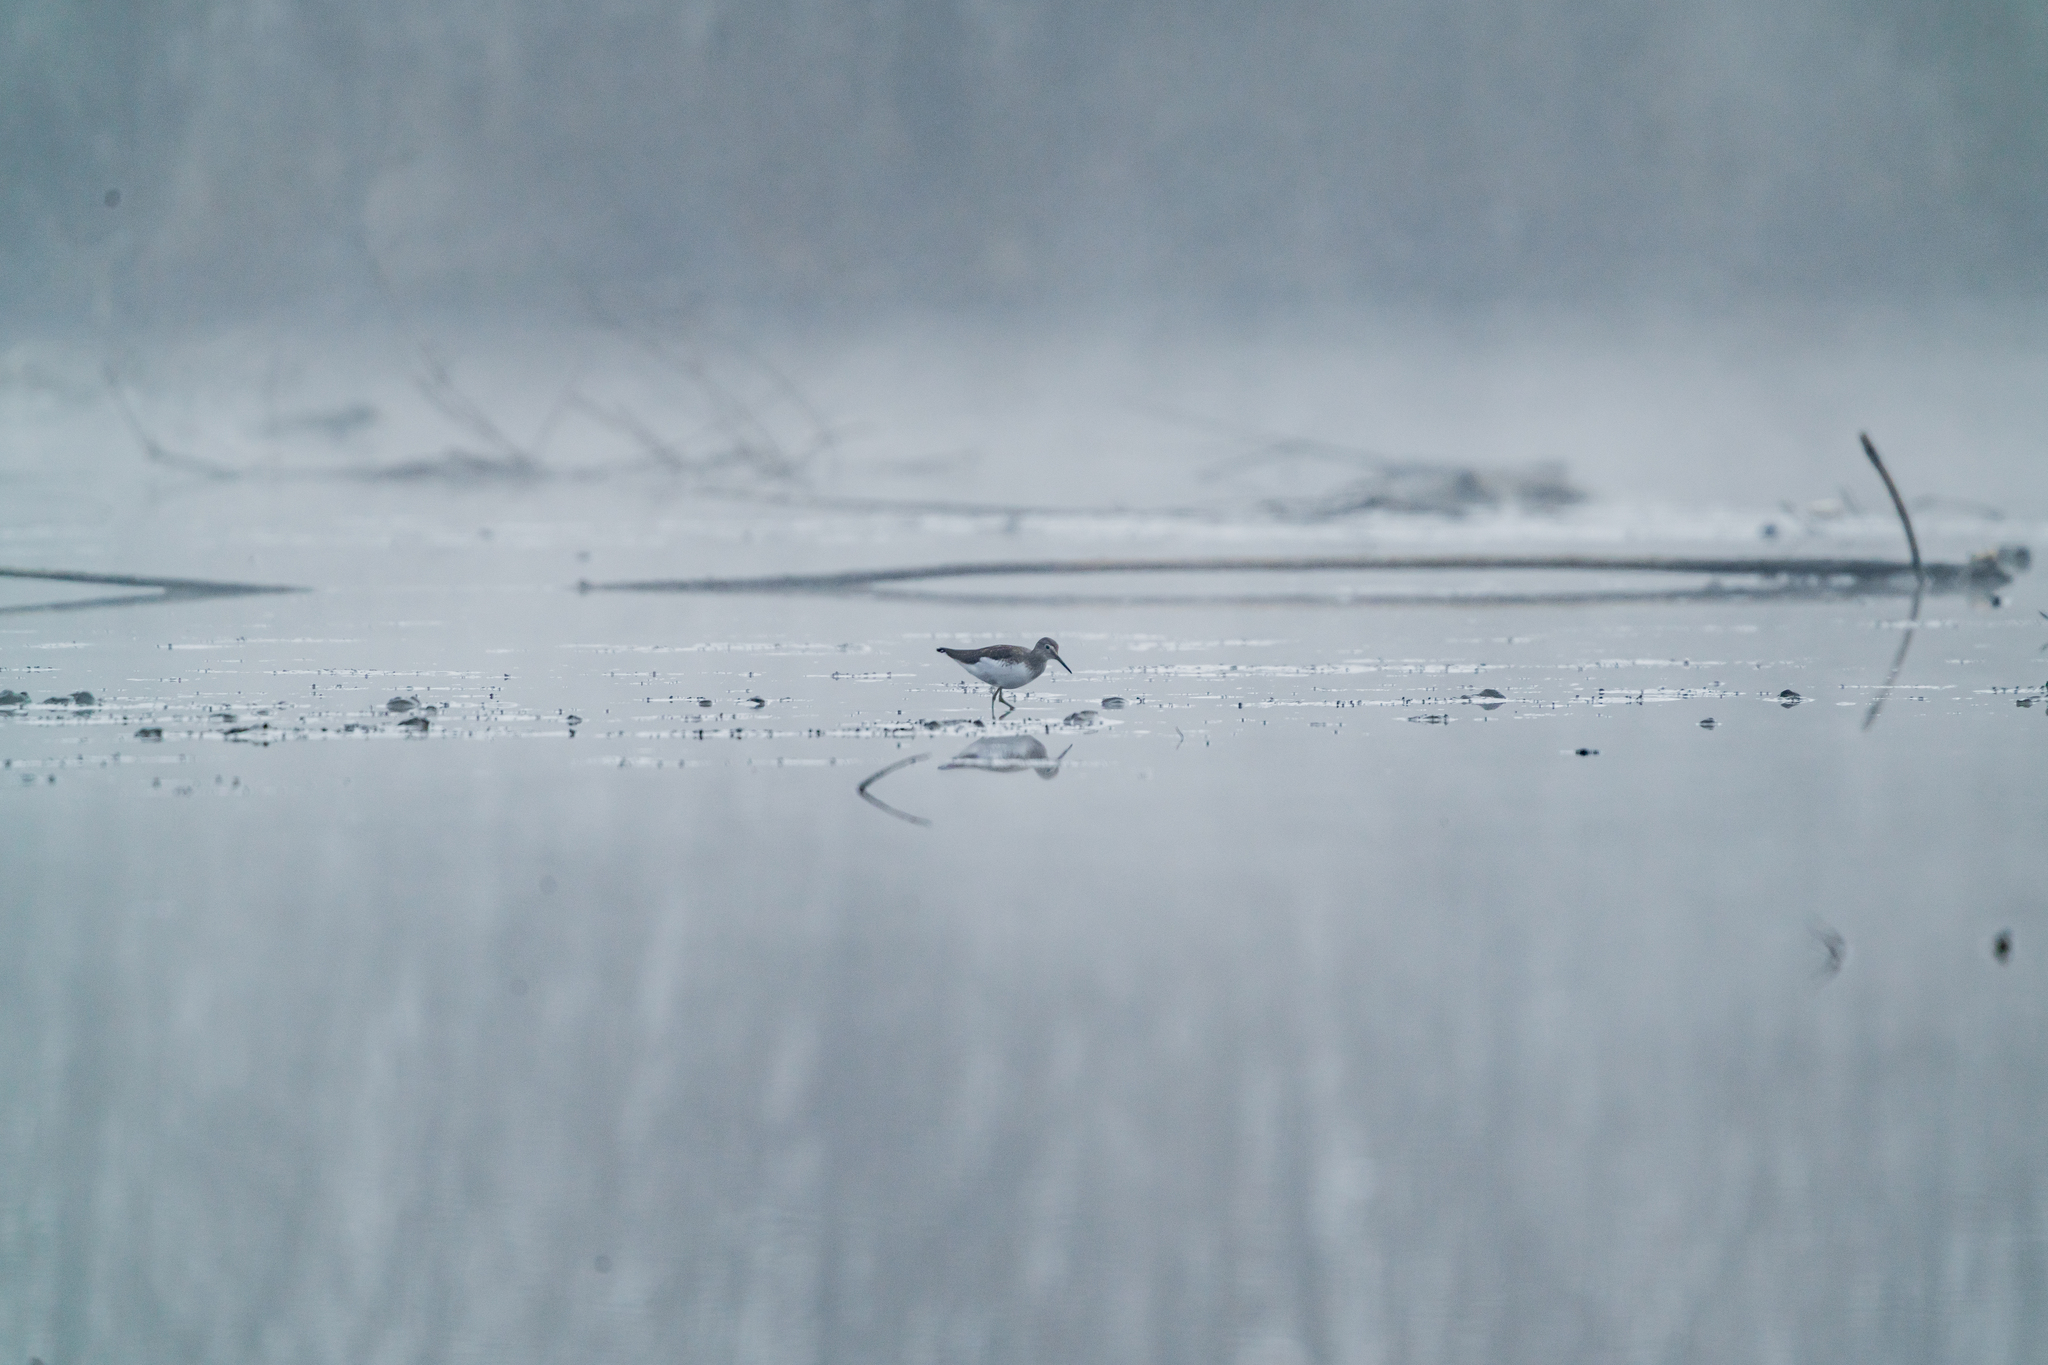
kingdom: Animalia
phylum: Chordata
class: Aves
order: Charadriiformes
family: Scolopacidae
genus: Tringa
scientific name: Tringa ochropus
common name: Green sandpiper
